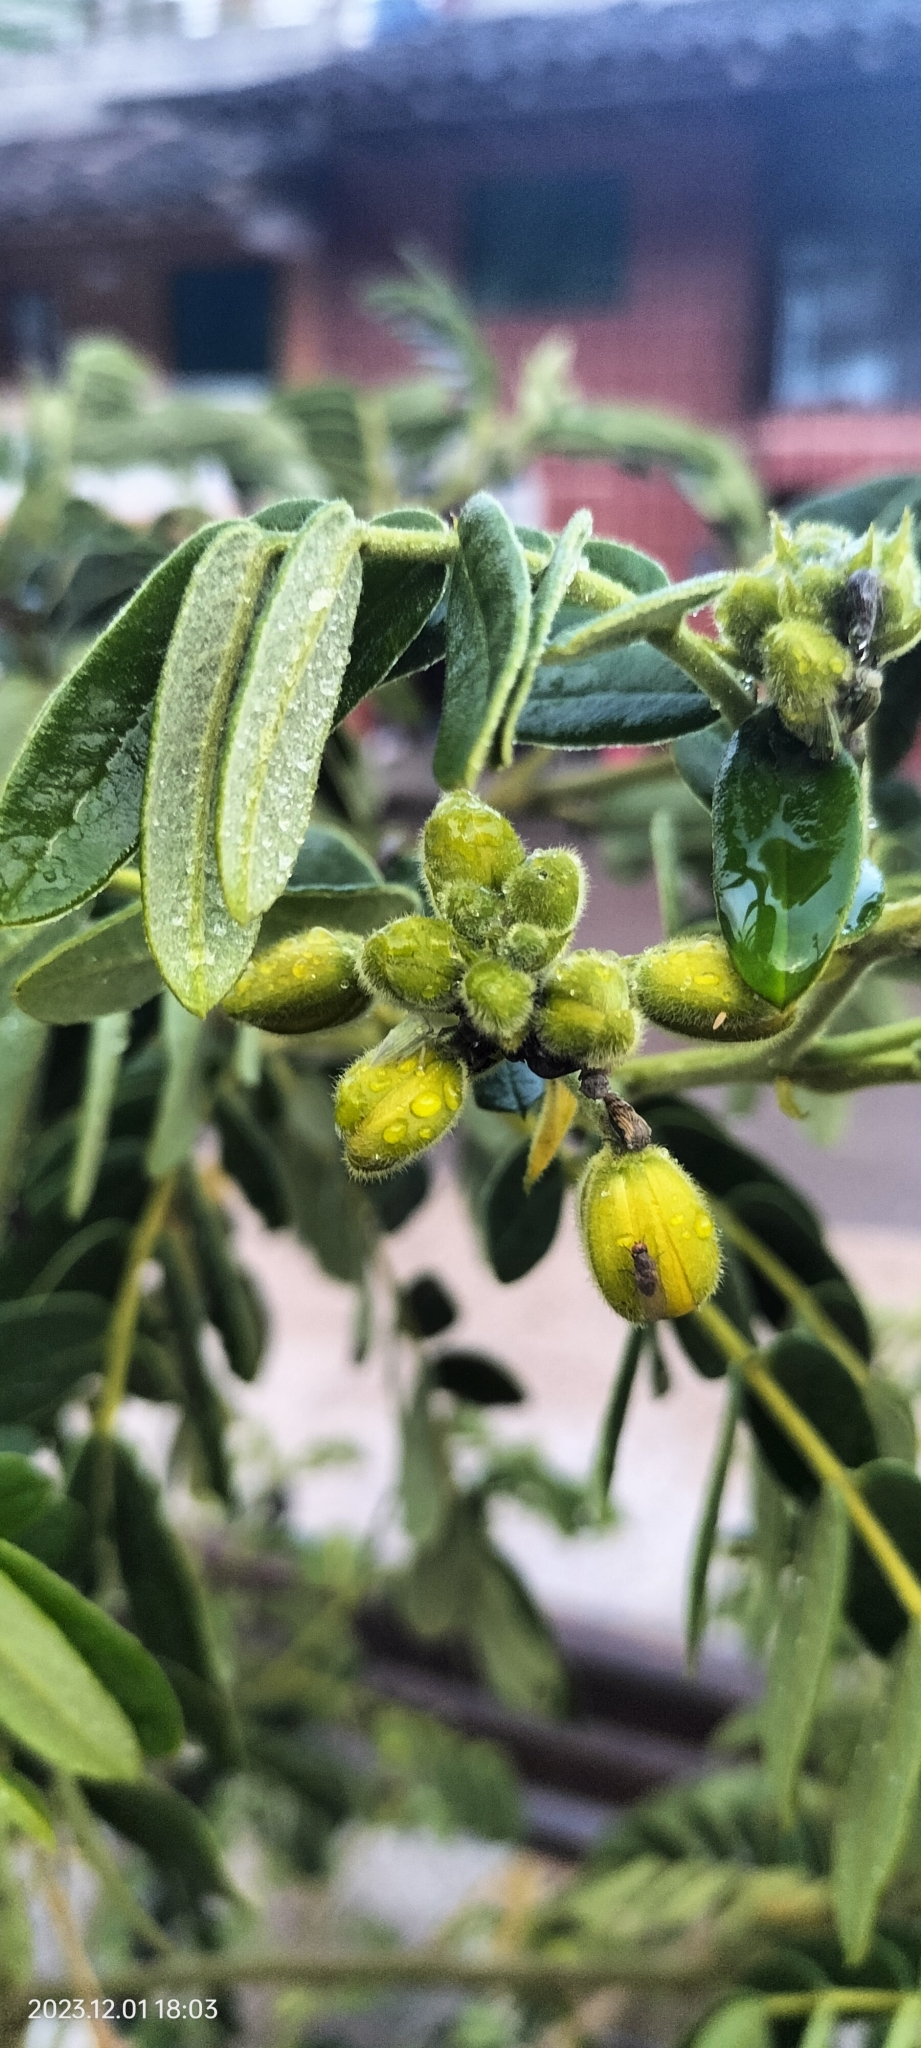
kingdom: Plantae
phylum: Tracheophyta
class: Magnoliopsida
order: Fabales
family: Fabaceae
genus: Senna
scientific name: Senna multiglandulosa
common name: Glandular senna
